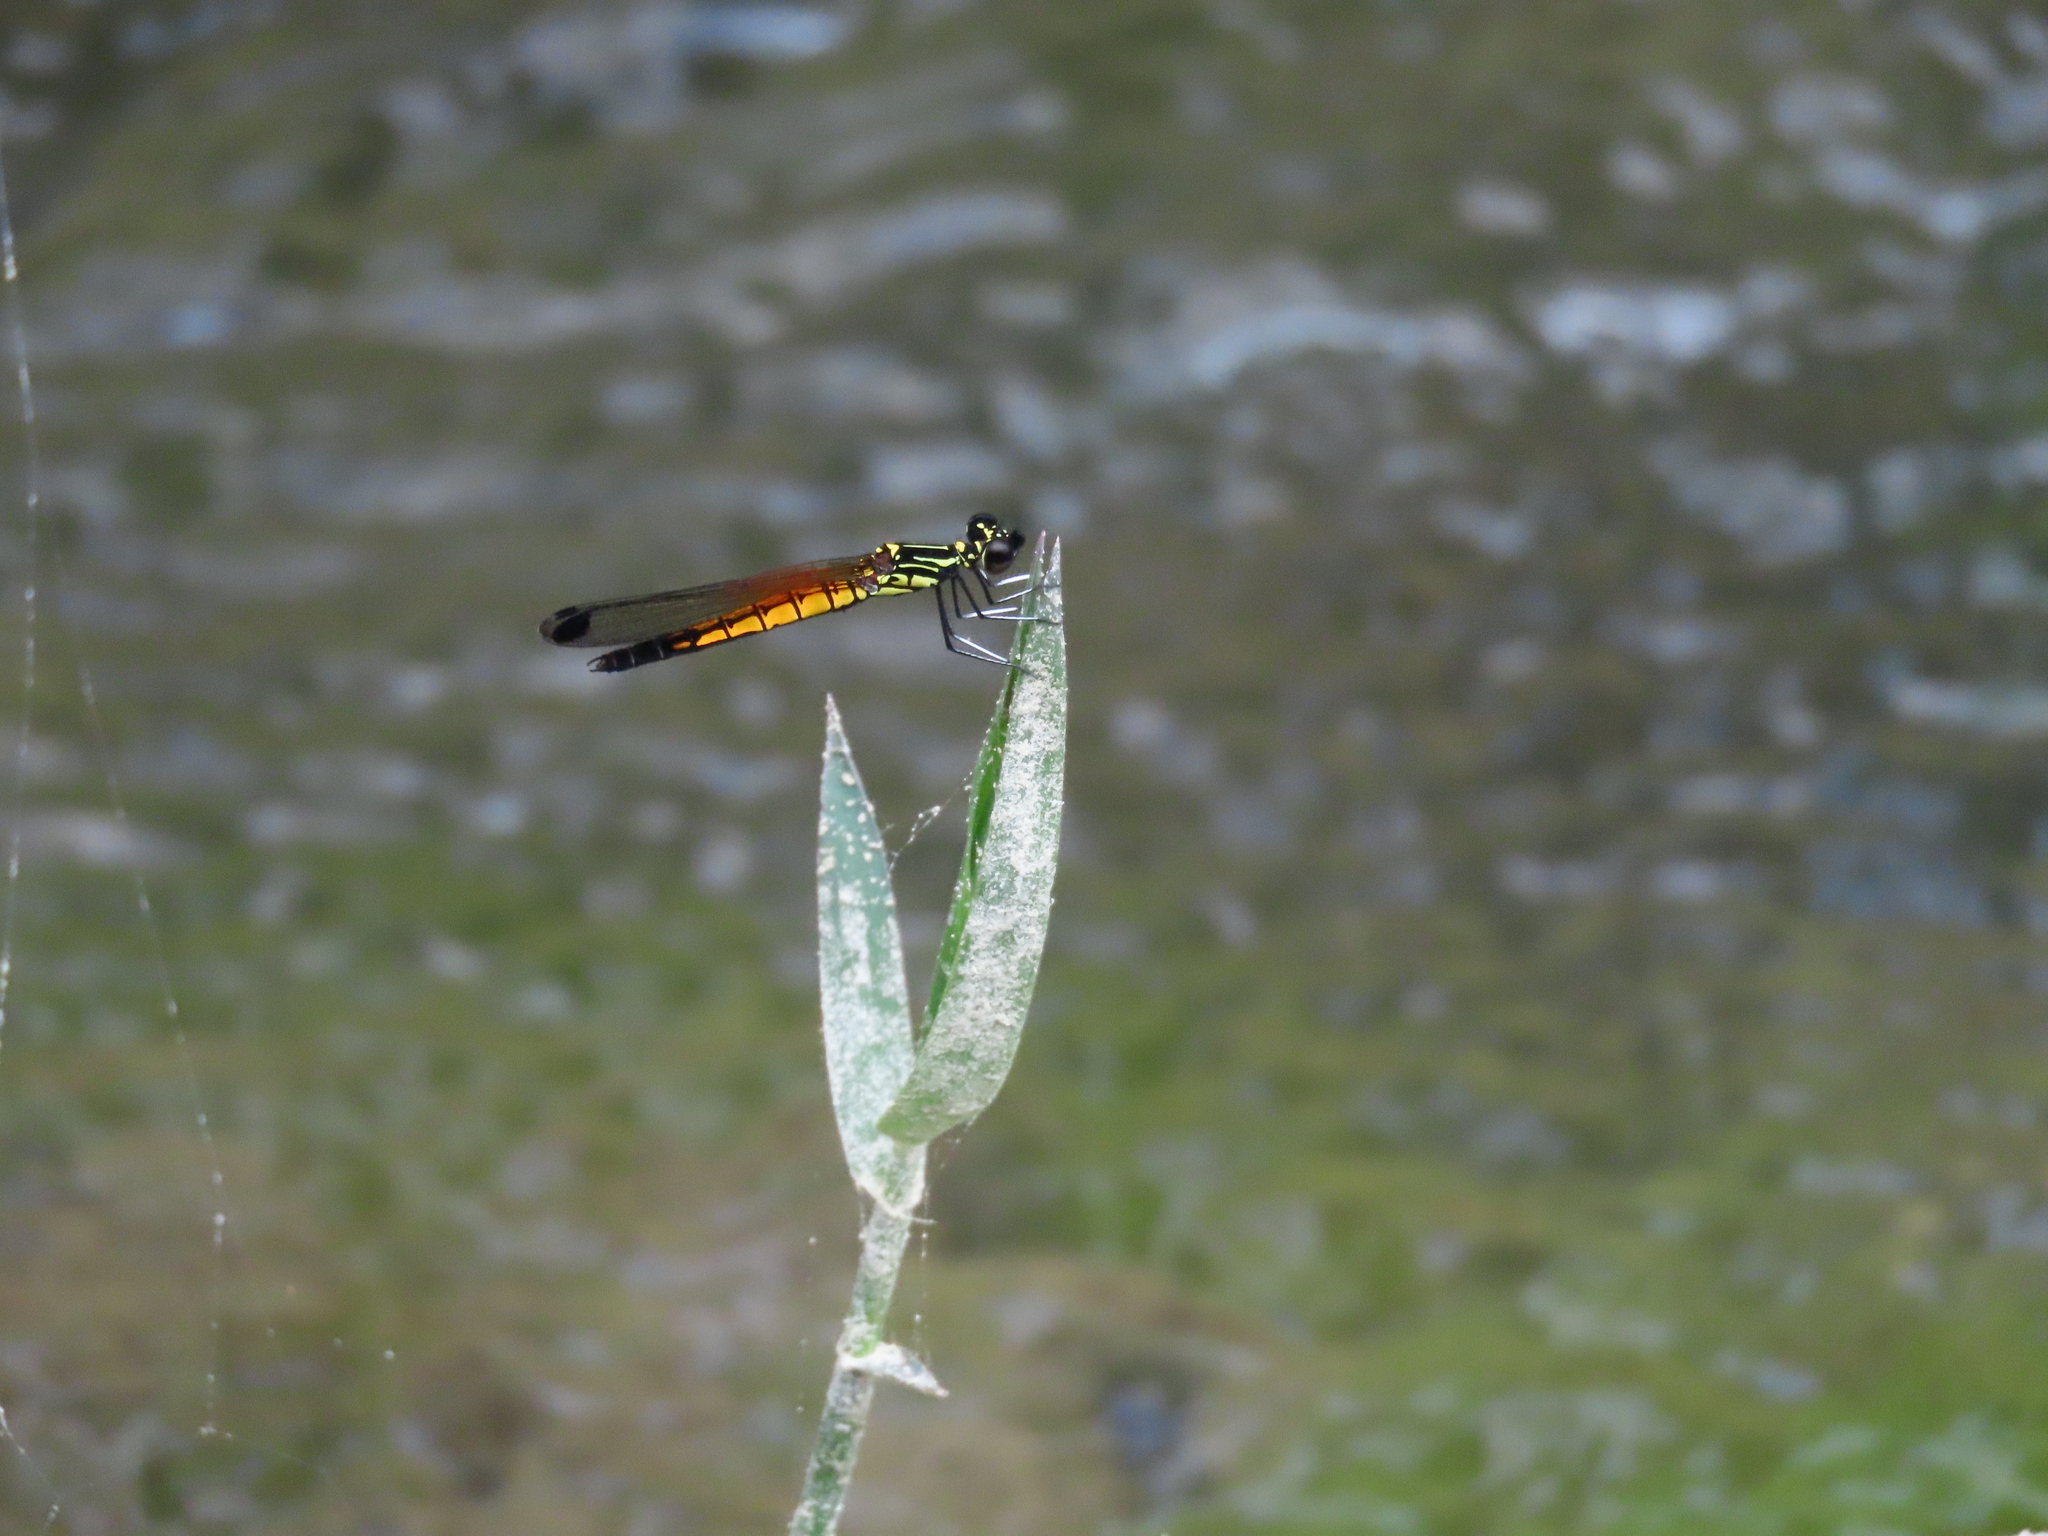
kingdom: Animalia
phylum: Arthropoda
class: Insecta
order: Odonata
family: Chlorocyphidae
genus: Libellago
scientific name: Libellago lineata
